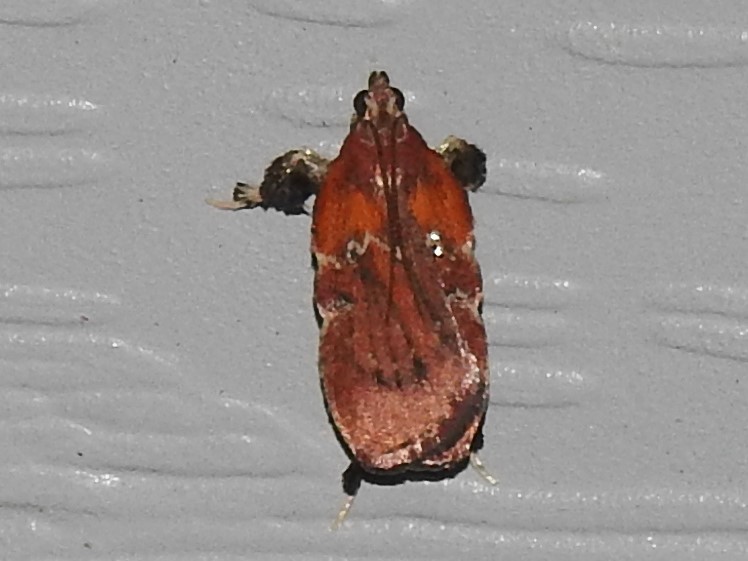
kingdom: Animalia
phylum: Arthropoda
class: Insecta
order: Lepidoptera
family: Pyralidae
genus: Galasa
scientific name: Galasa nigrinodis
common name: Boxwood leaftier moth
